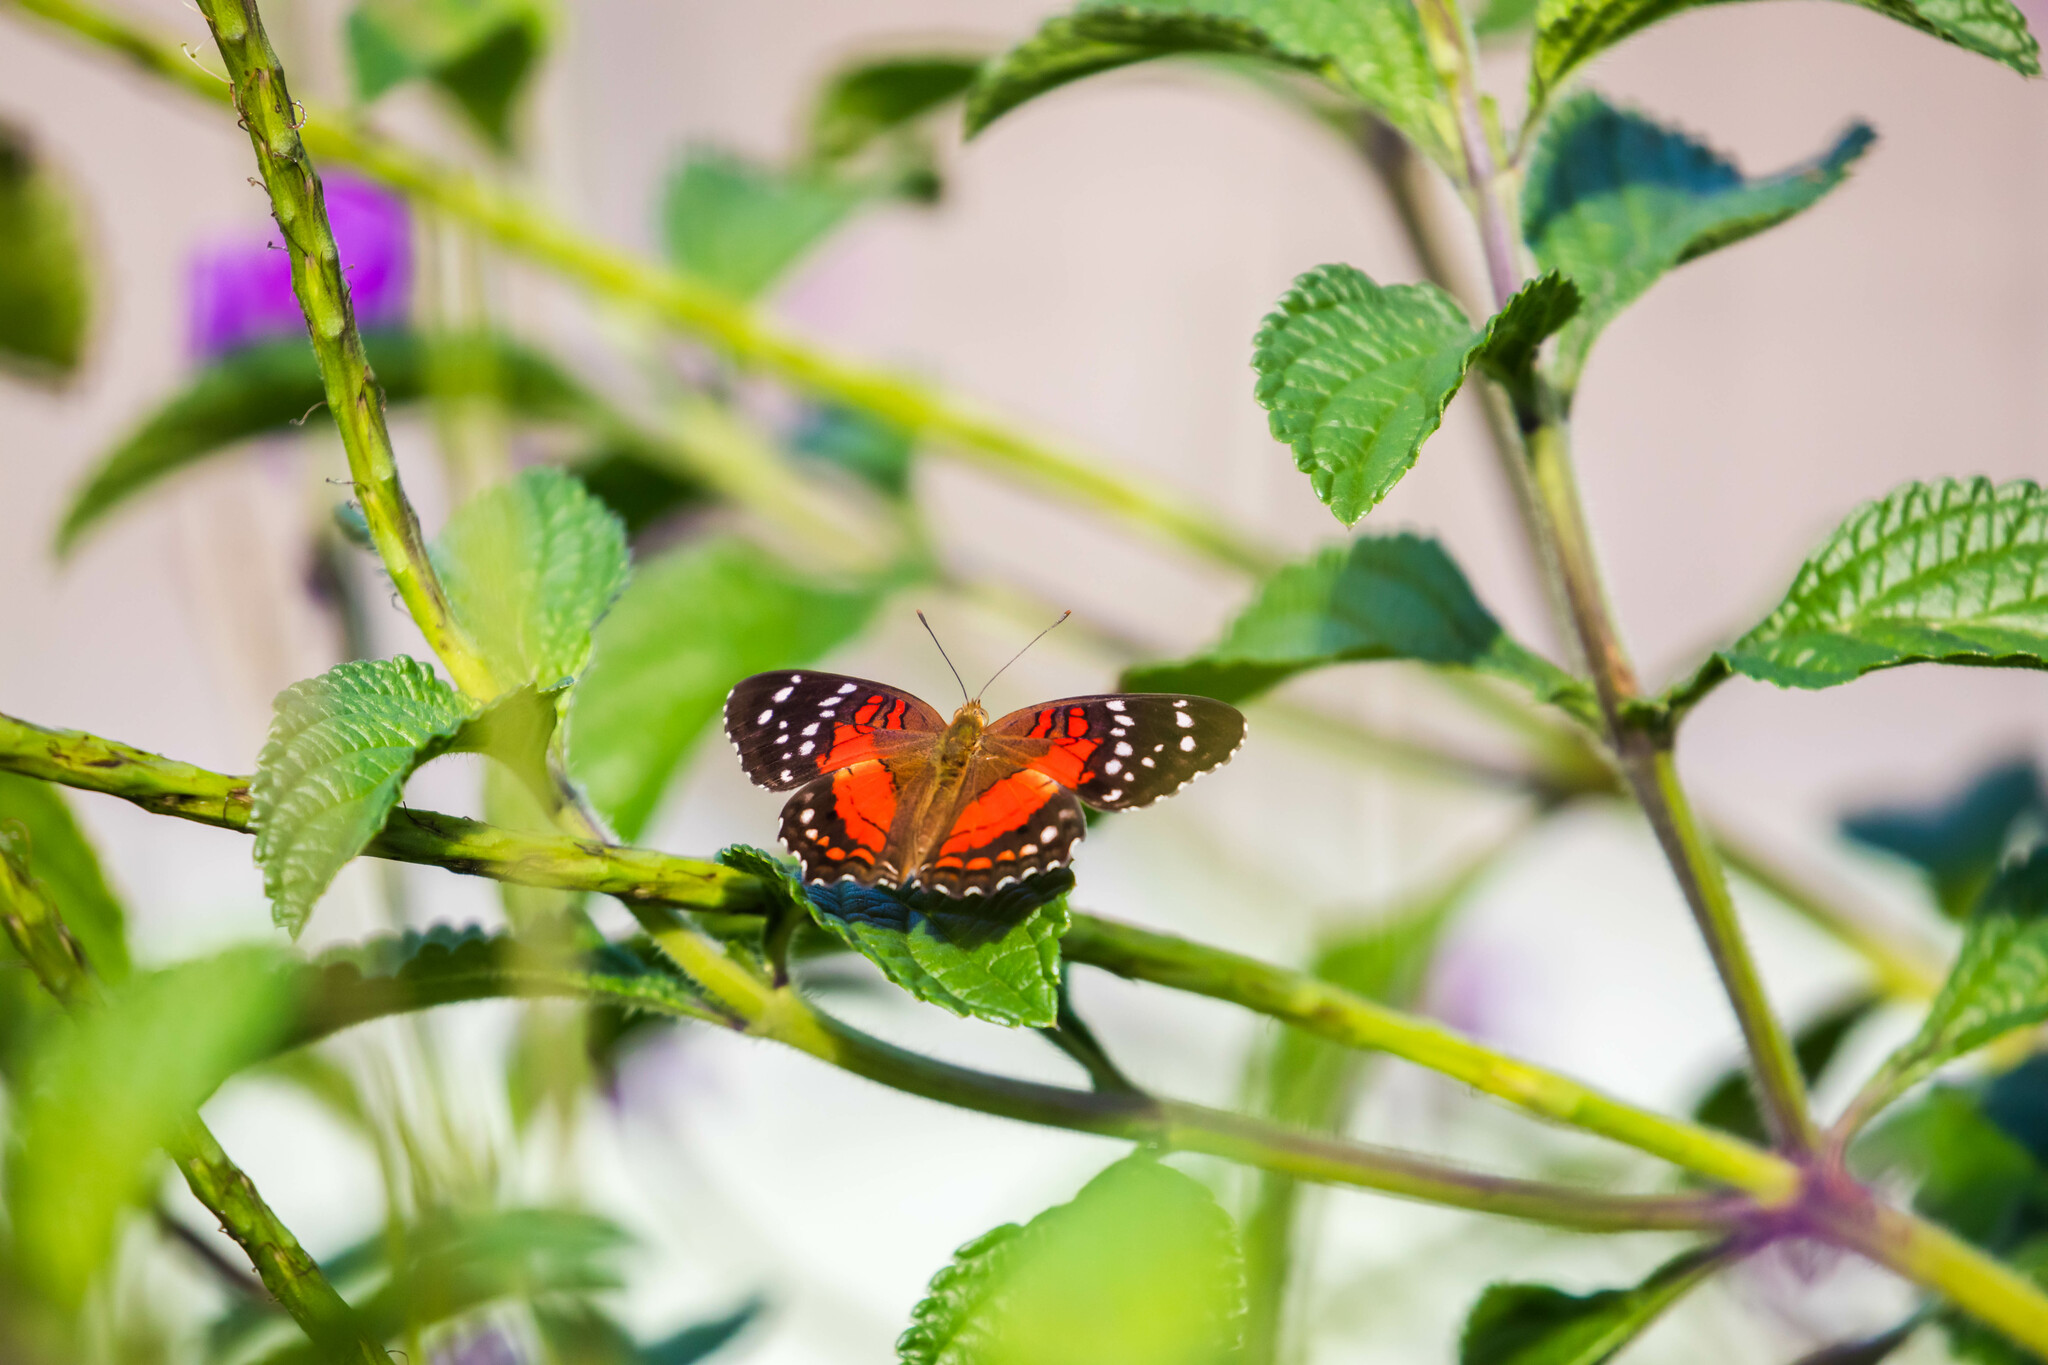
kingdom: Animalia
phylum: Arthropoda
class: Insecta
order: Lepidoptera
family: Nymphalidae
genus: Anartia
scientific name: Anartia amathea
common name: Red peacock
